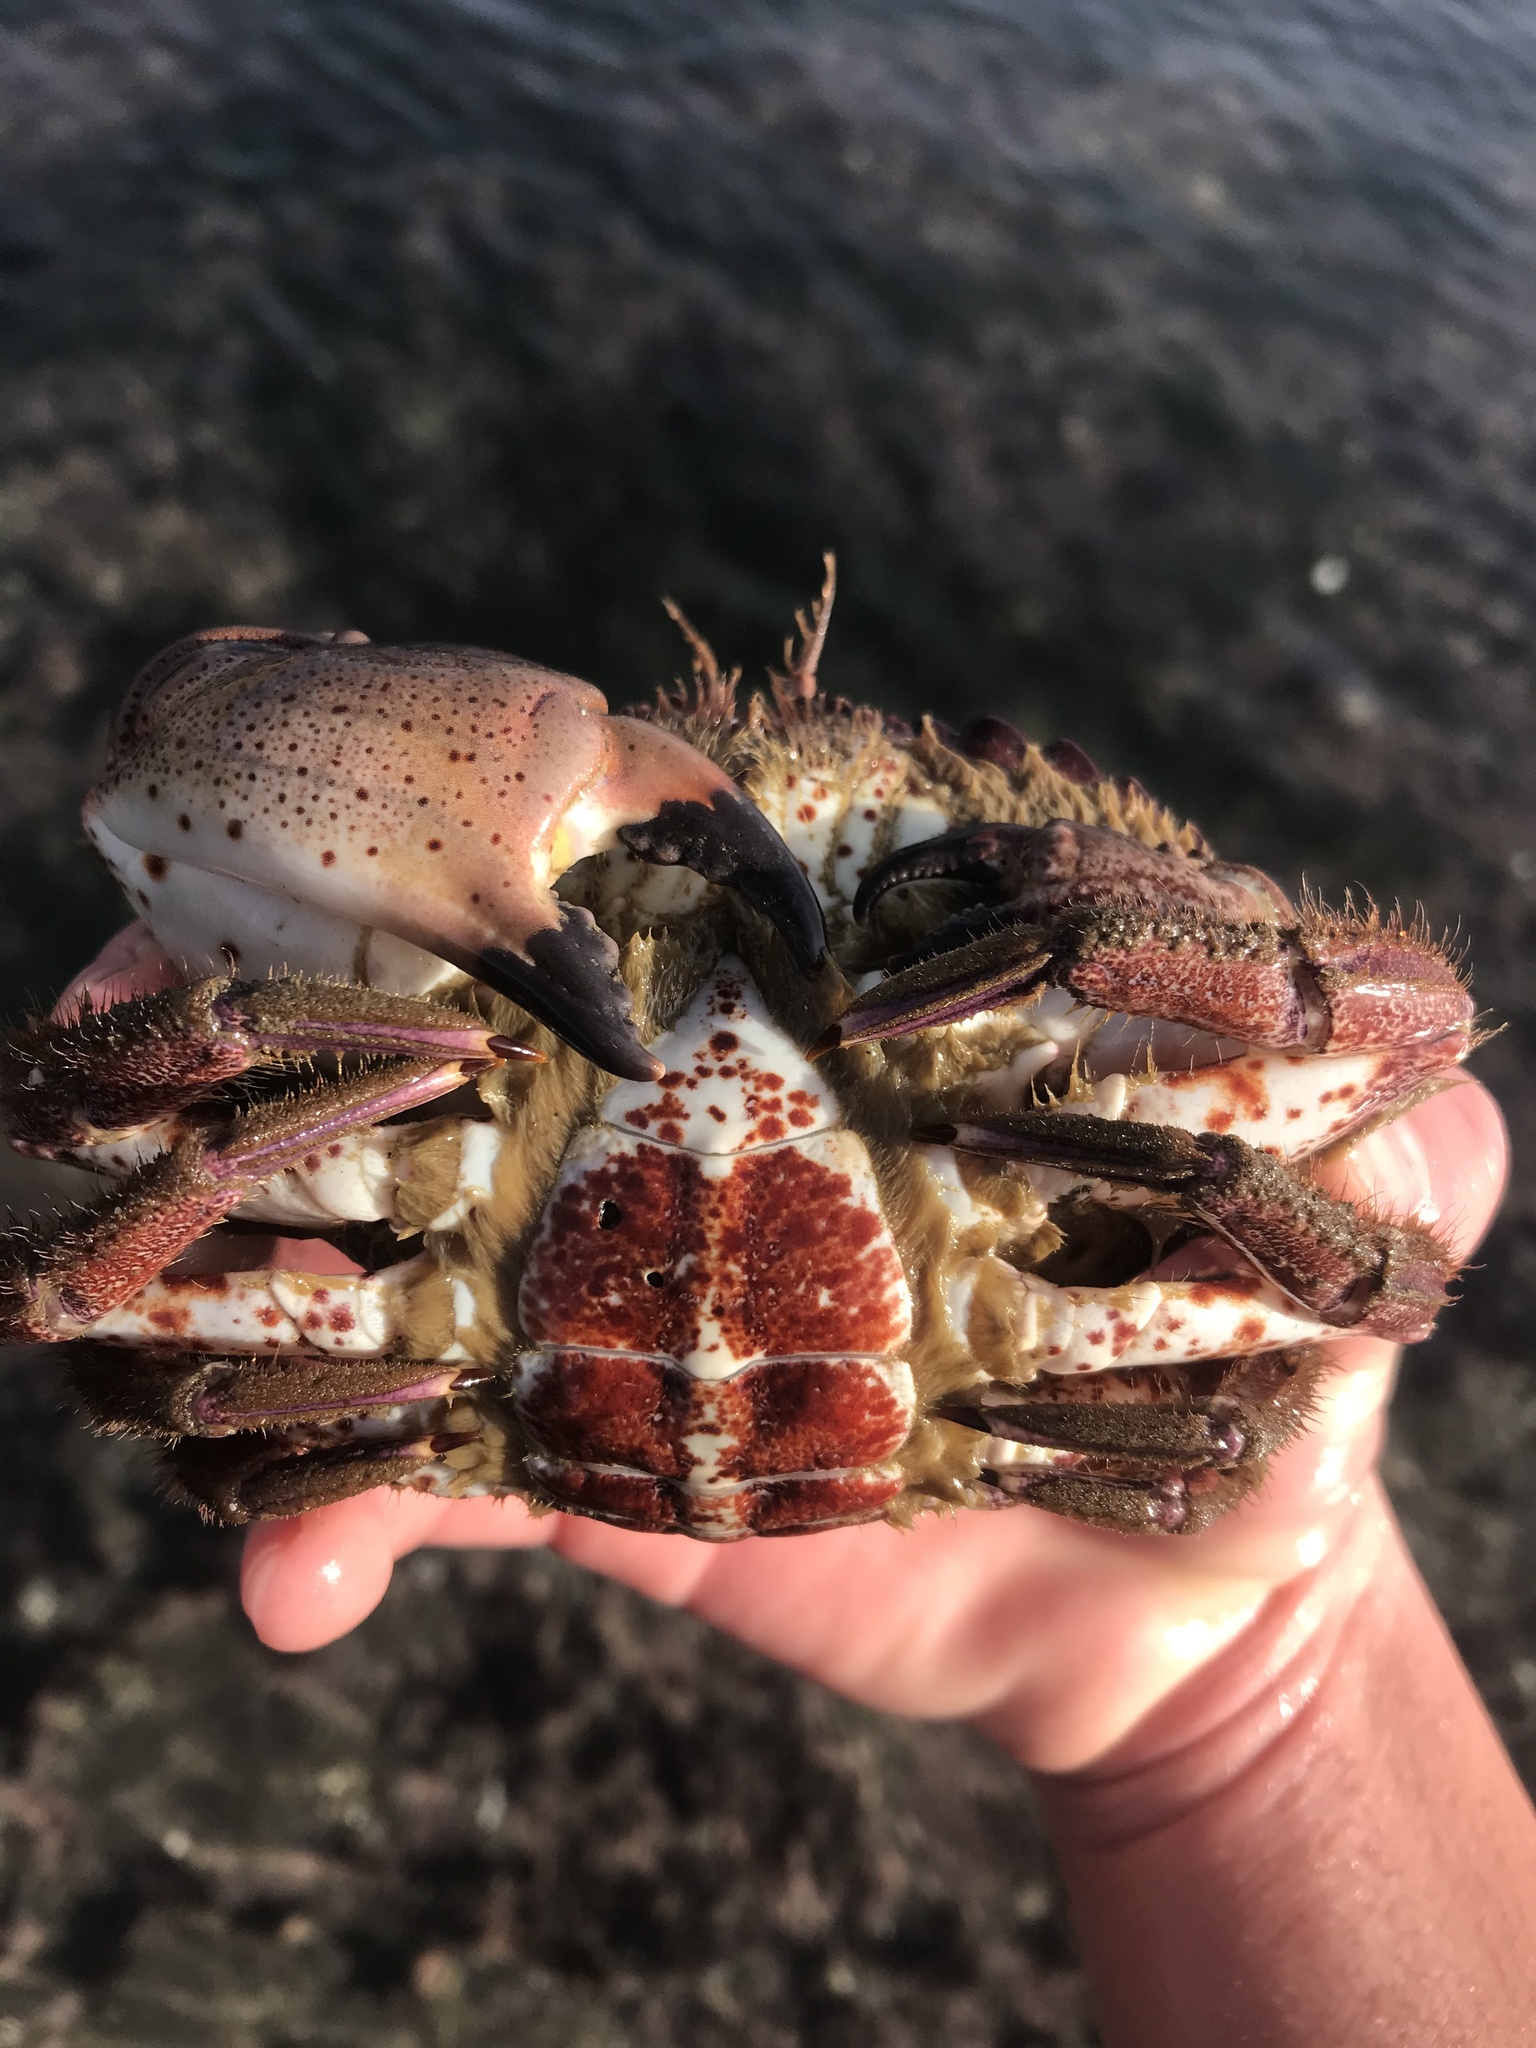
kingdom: Animalia
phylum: Arthropoda
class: Malacostraca
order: Decapoda
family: Cancridae
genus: Romaleon
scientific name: Romaleon antennarium
